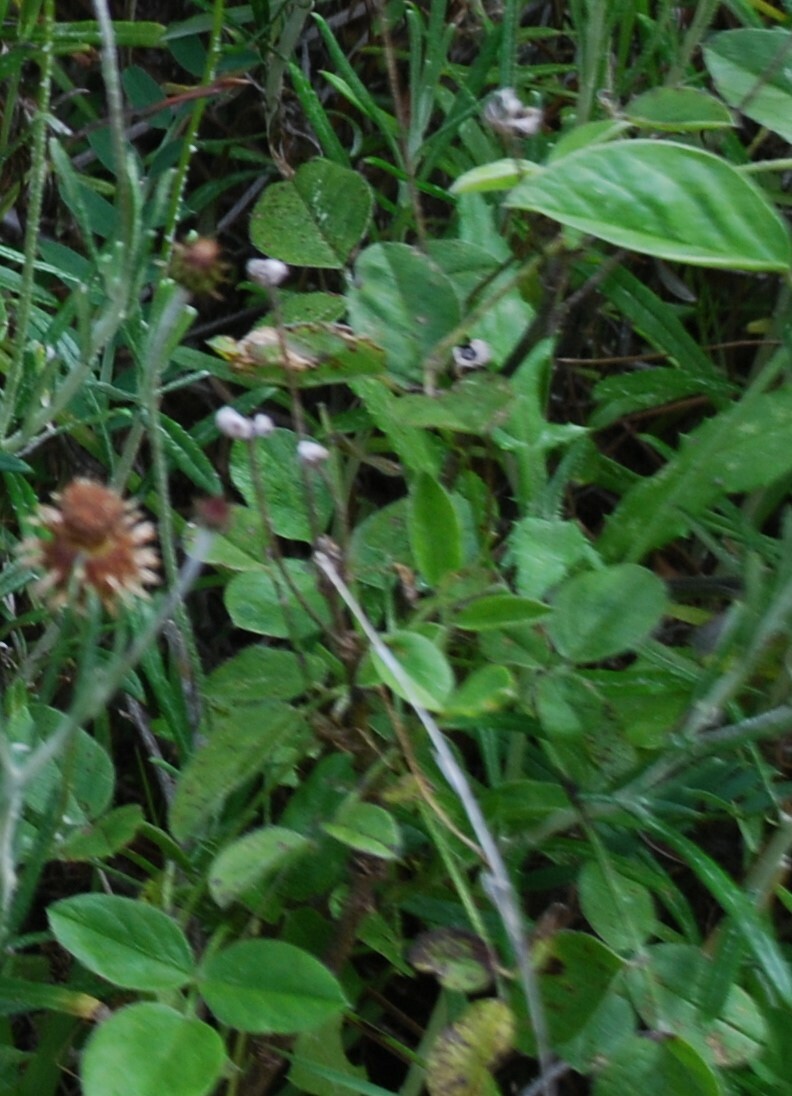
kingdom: Plantae
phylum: Tracheophyta
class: Magnoliopsida
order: Fabales
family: Fabaceae
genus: Bituminaria
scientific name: Bituminaria bituminosa
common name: Arabian pea
